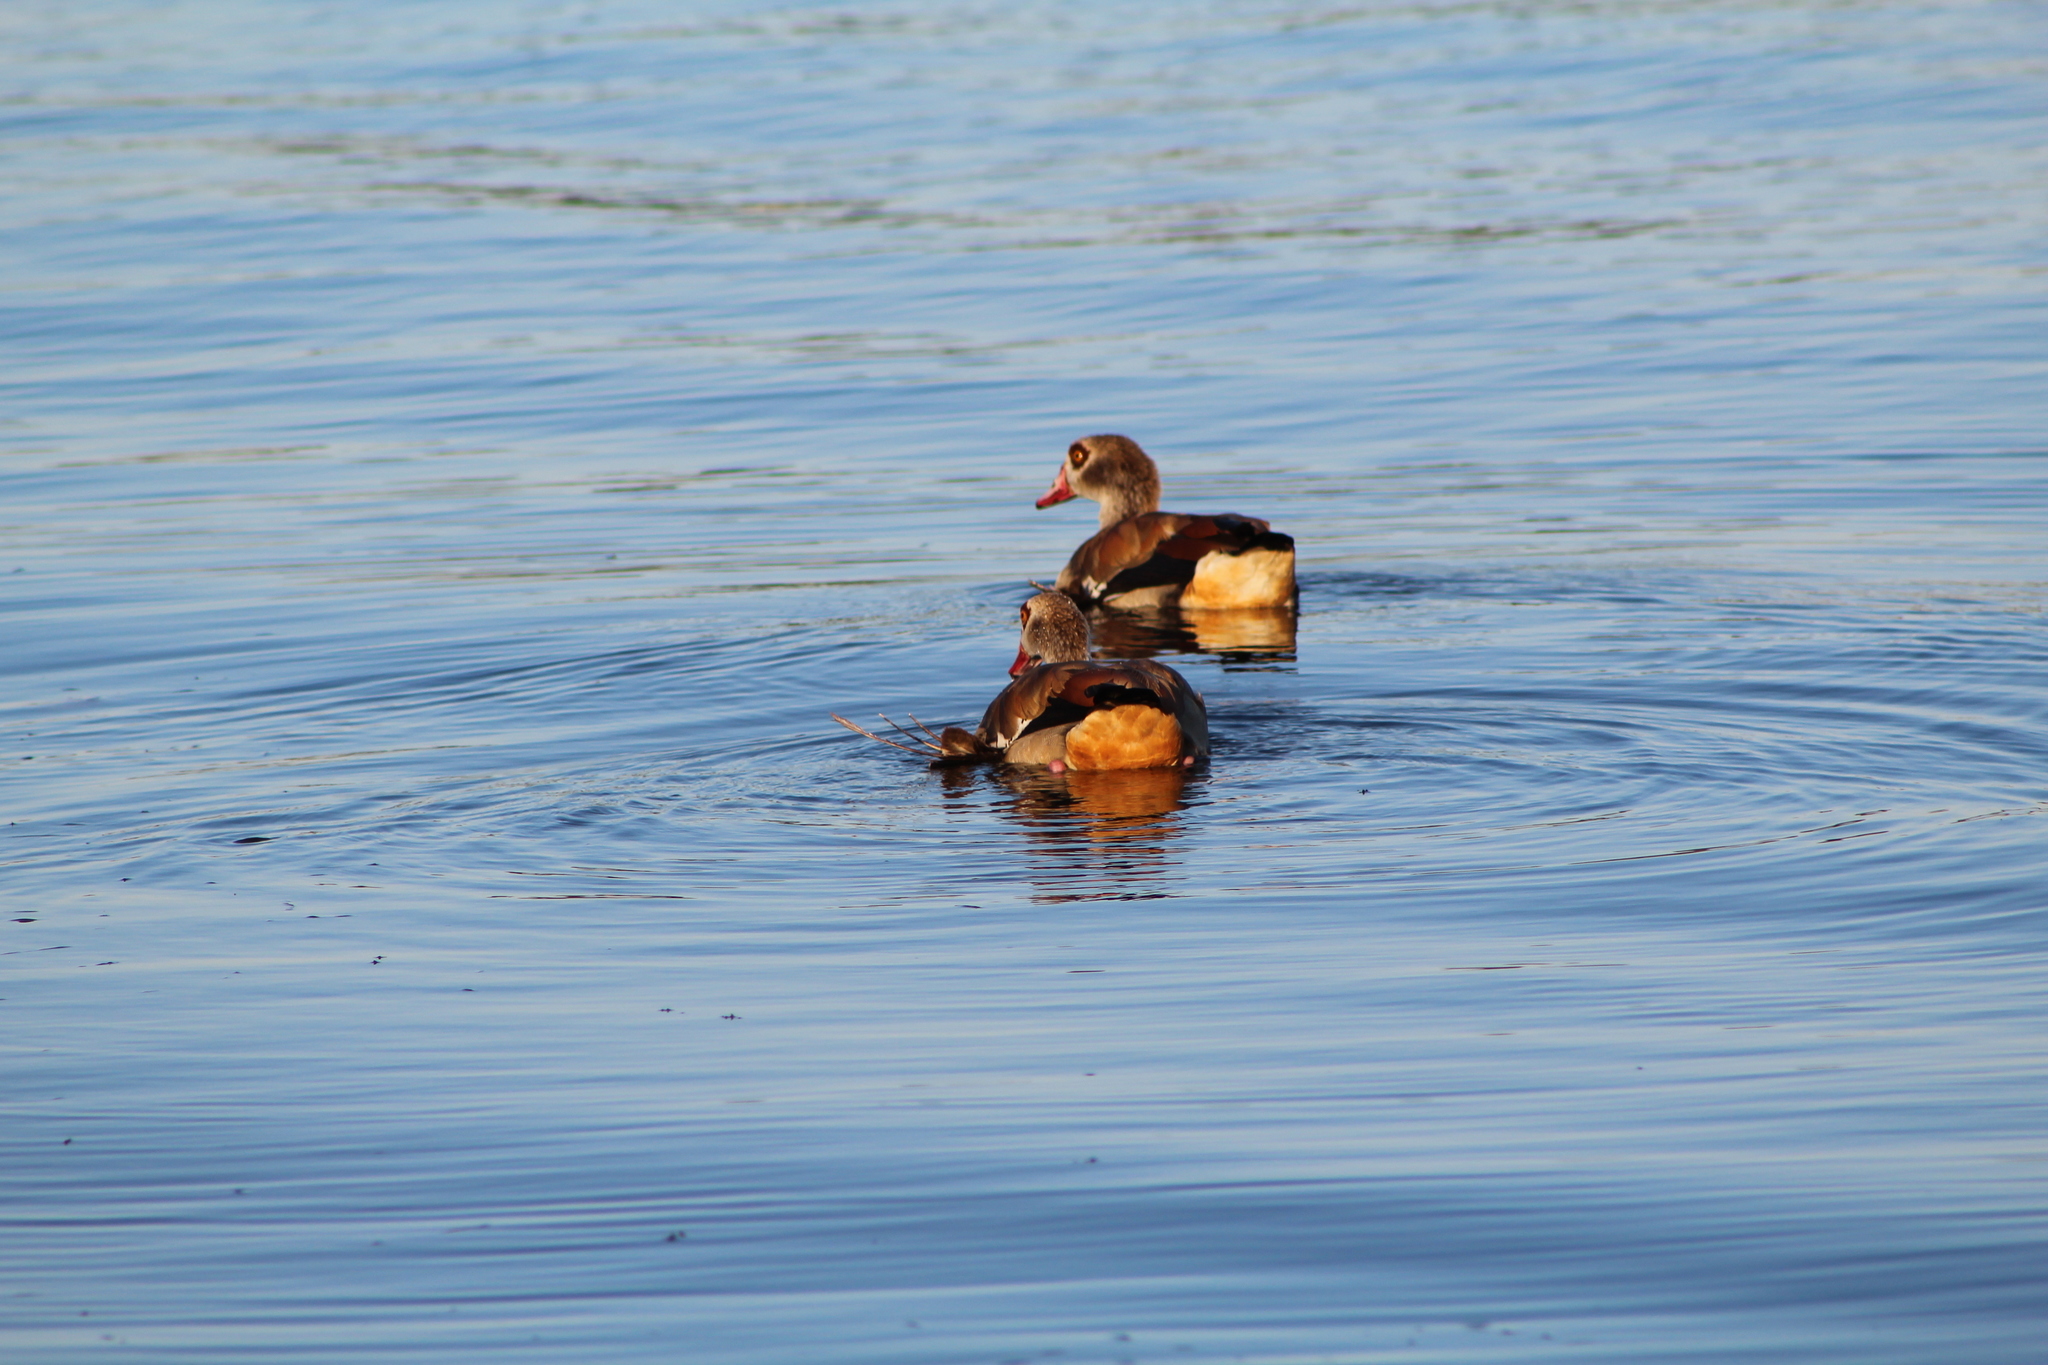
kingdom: Animalia
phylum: Chordata
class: Aves
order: Anseriformes
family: Anatidae
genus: Alopochen
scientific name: Alopochen aegyptiaca
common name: Egyptian goose
